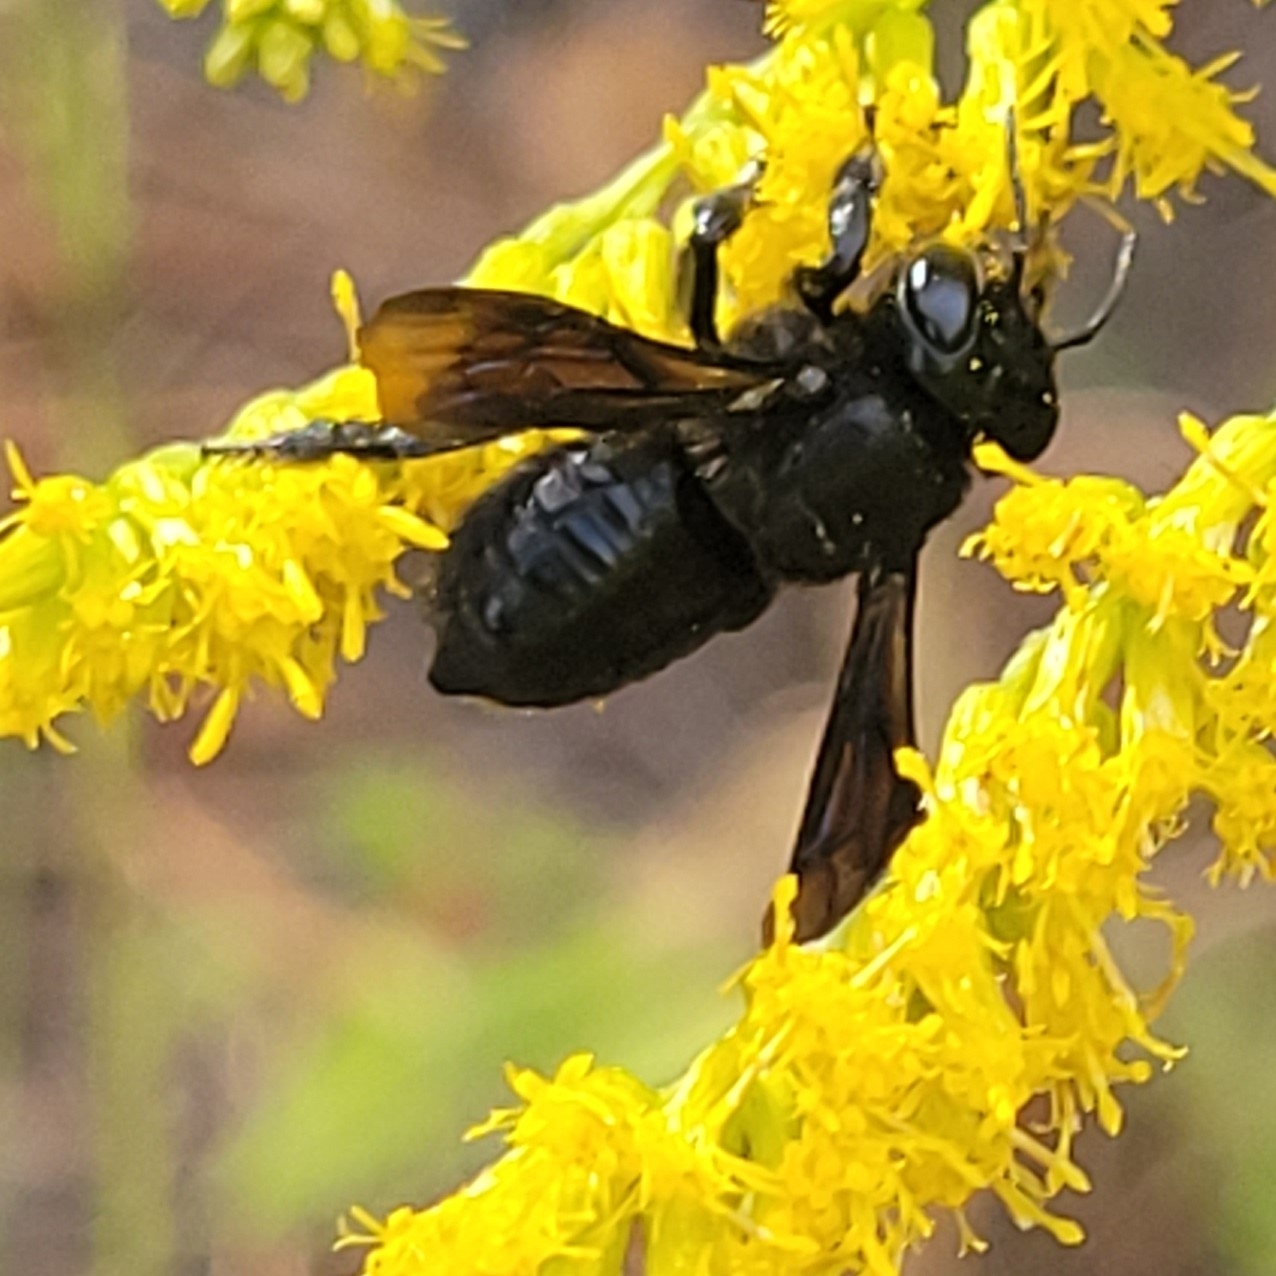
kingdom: Animalia
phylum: Arthropoda
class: Insecta
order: Hymenoptera
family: Megachilidae
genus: Megachile
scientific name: Megachile xylocopoides
